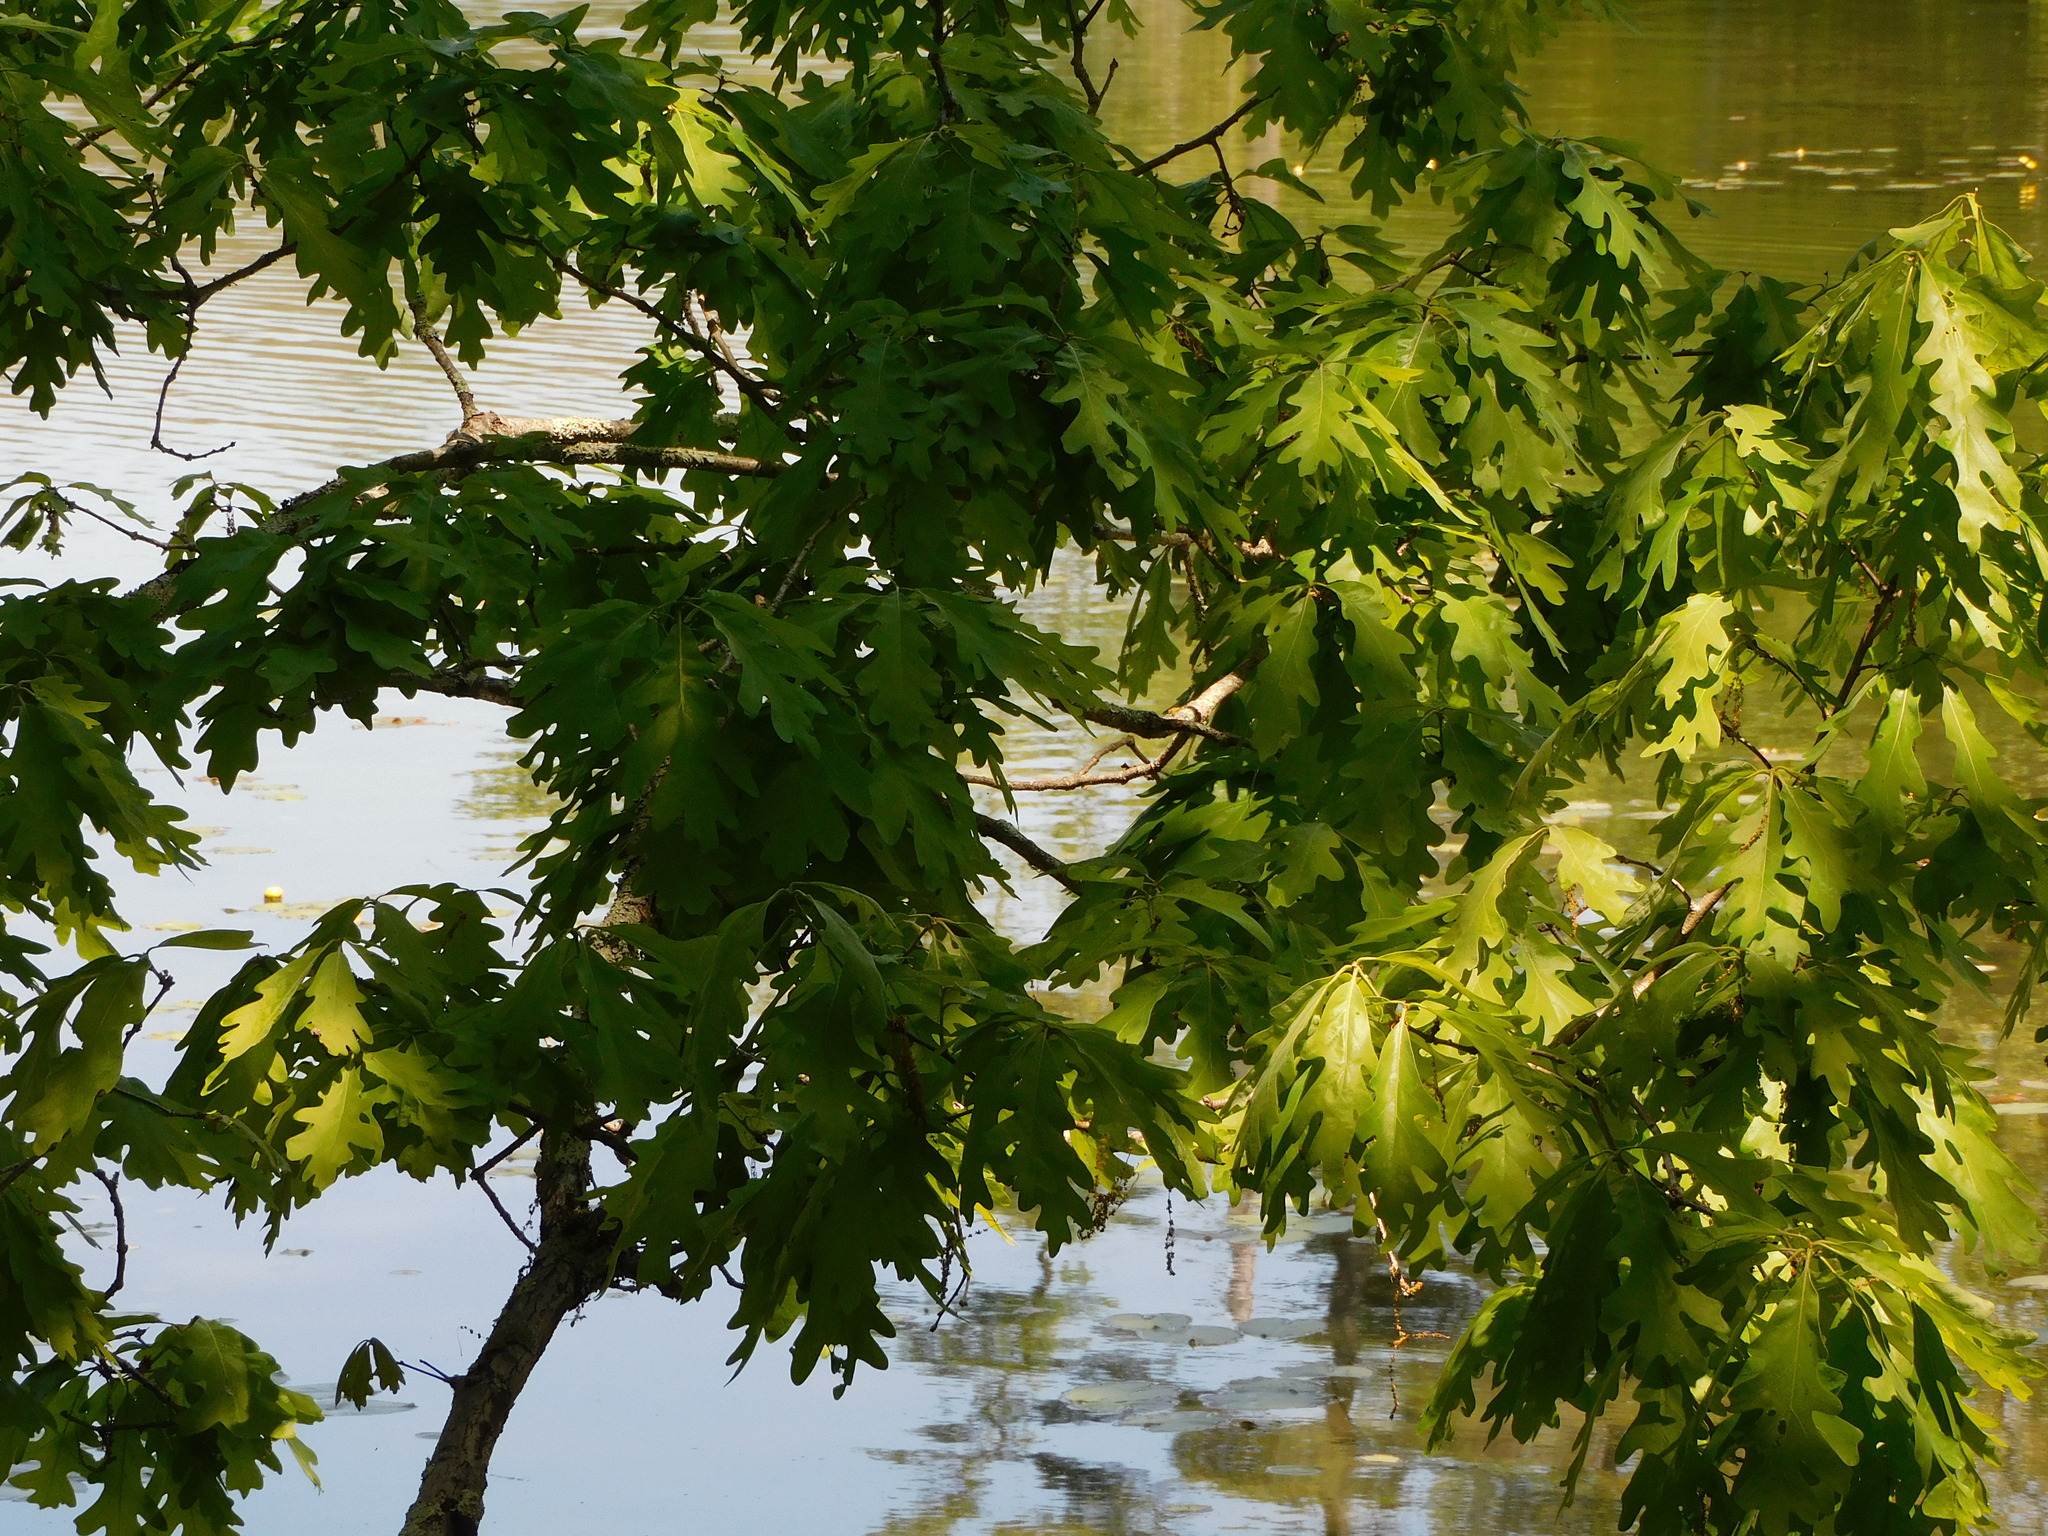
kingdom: Plantae
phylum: Tracheophyta
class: Magnoliopsida
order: Fagales
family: Fagaceae
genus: Quercus
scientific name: Quercus alba
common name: White oak
